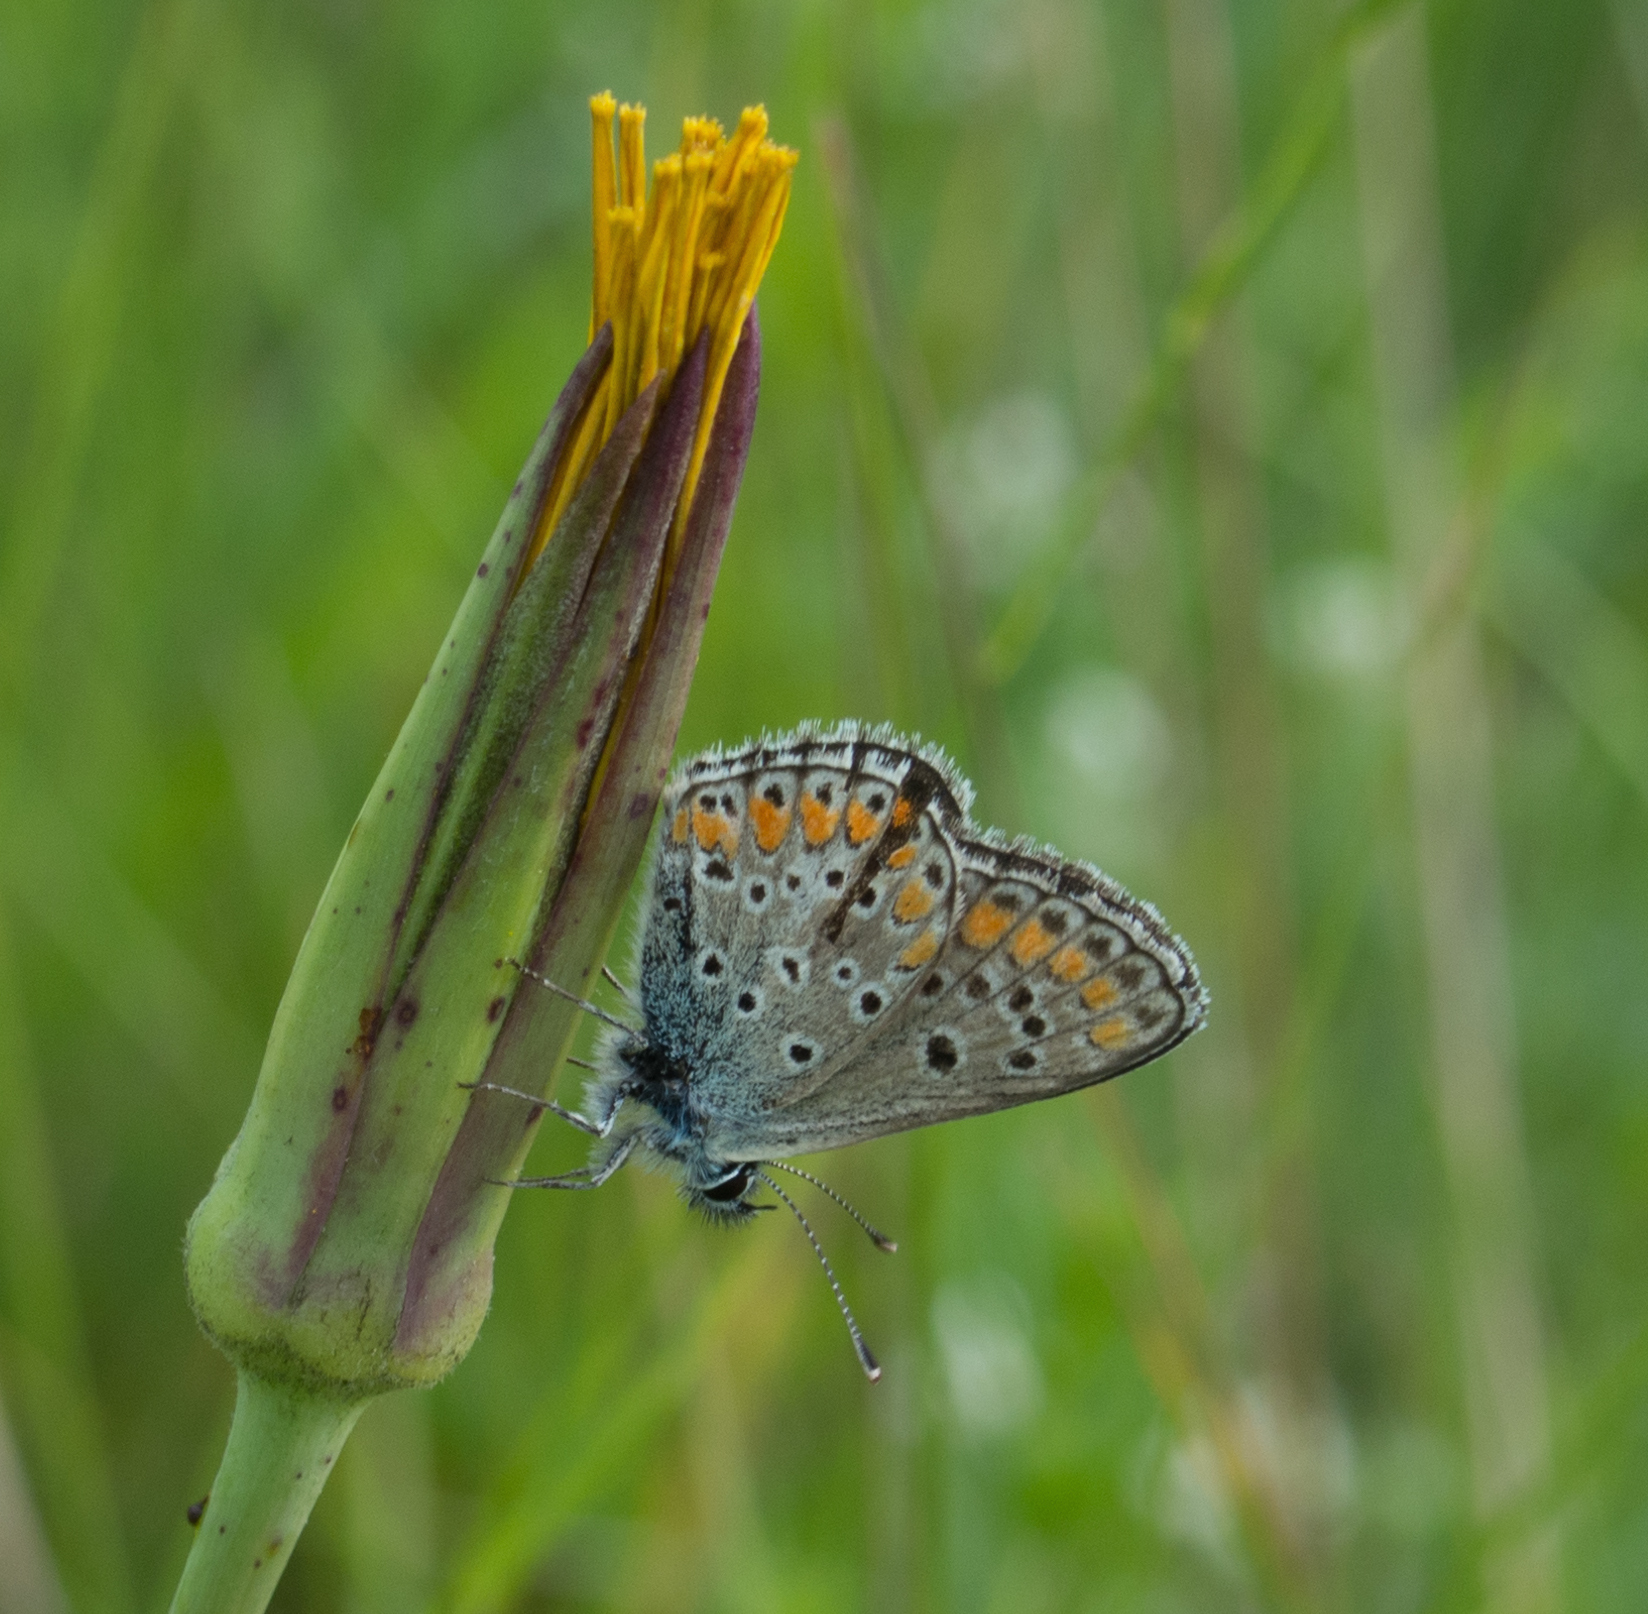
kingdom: Animalia
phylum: Arthropoda
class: Insecta
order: Lepidoptera
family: Lycaenidae
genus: Aricia
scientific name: Aricia agestis
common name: Brown argus
